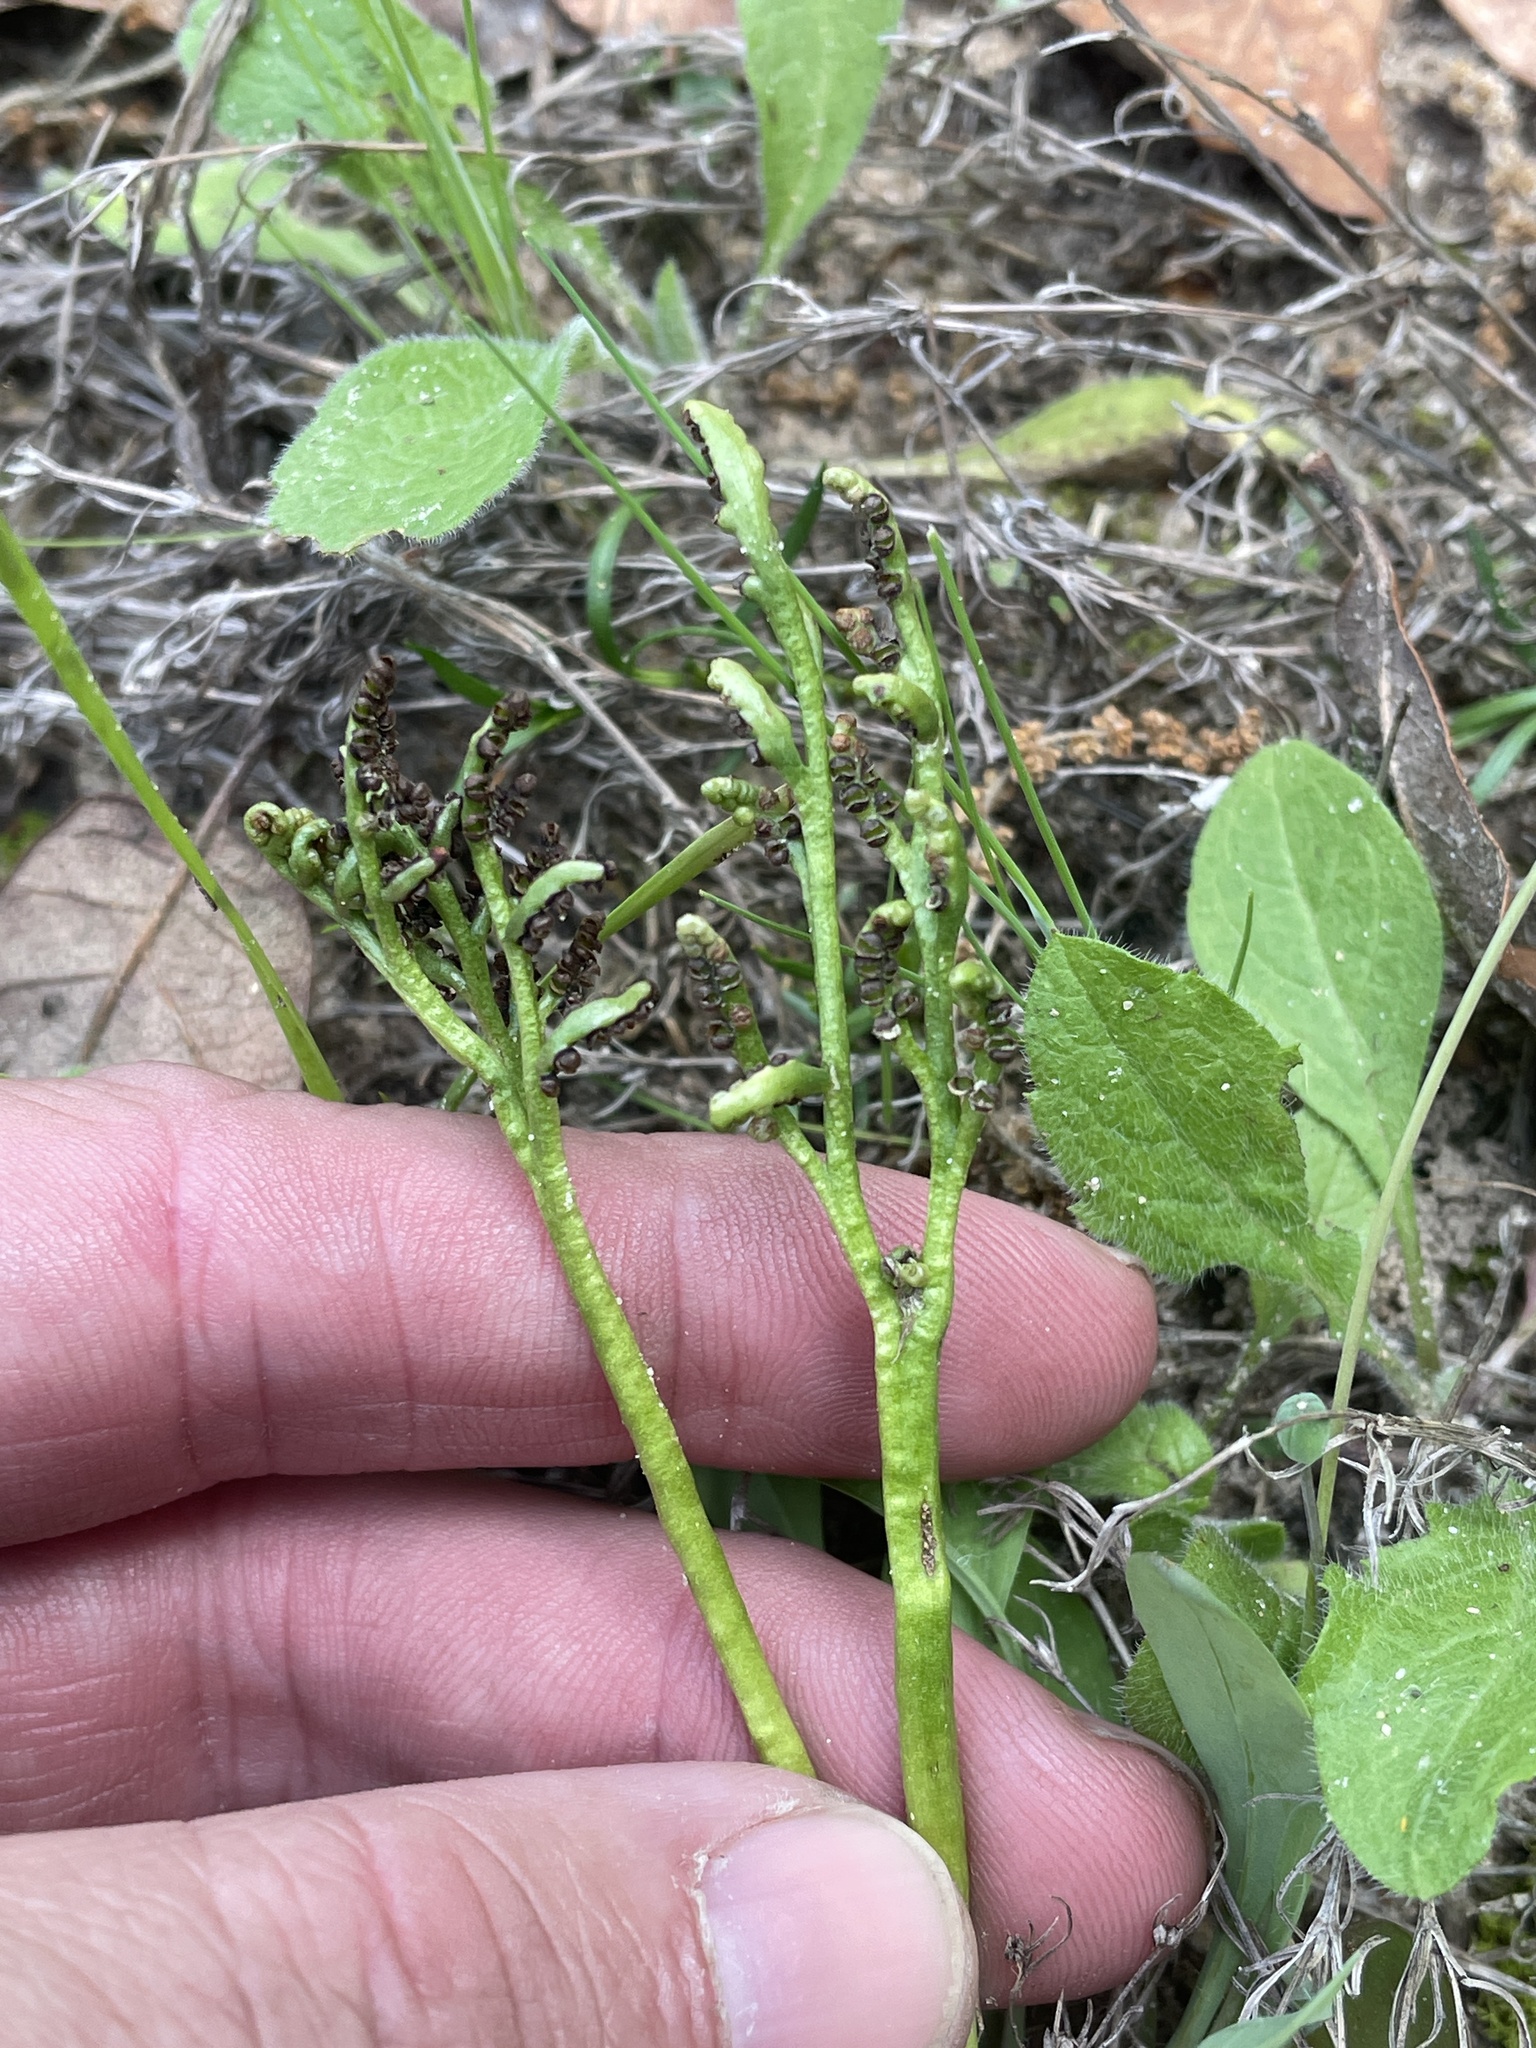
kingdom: Plantae
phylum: Tracheophyta
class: Polypodiopsida
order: Ophioglossales
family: Ophioglossaceae
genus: Sceptridium
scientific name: Sceptridium lunarioides
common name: Prostrate grapefern
